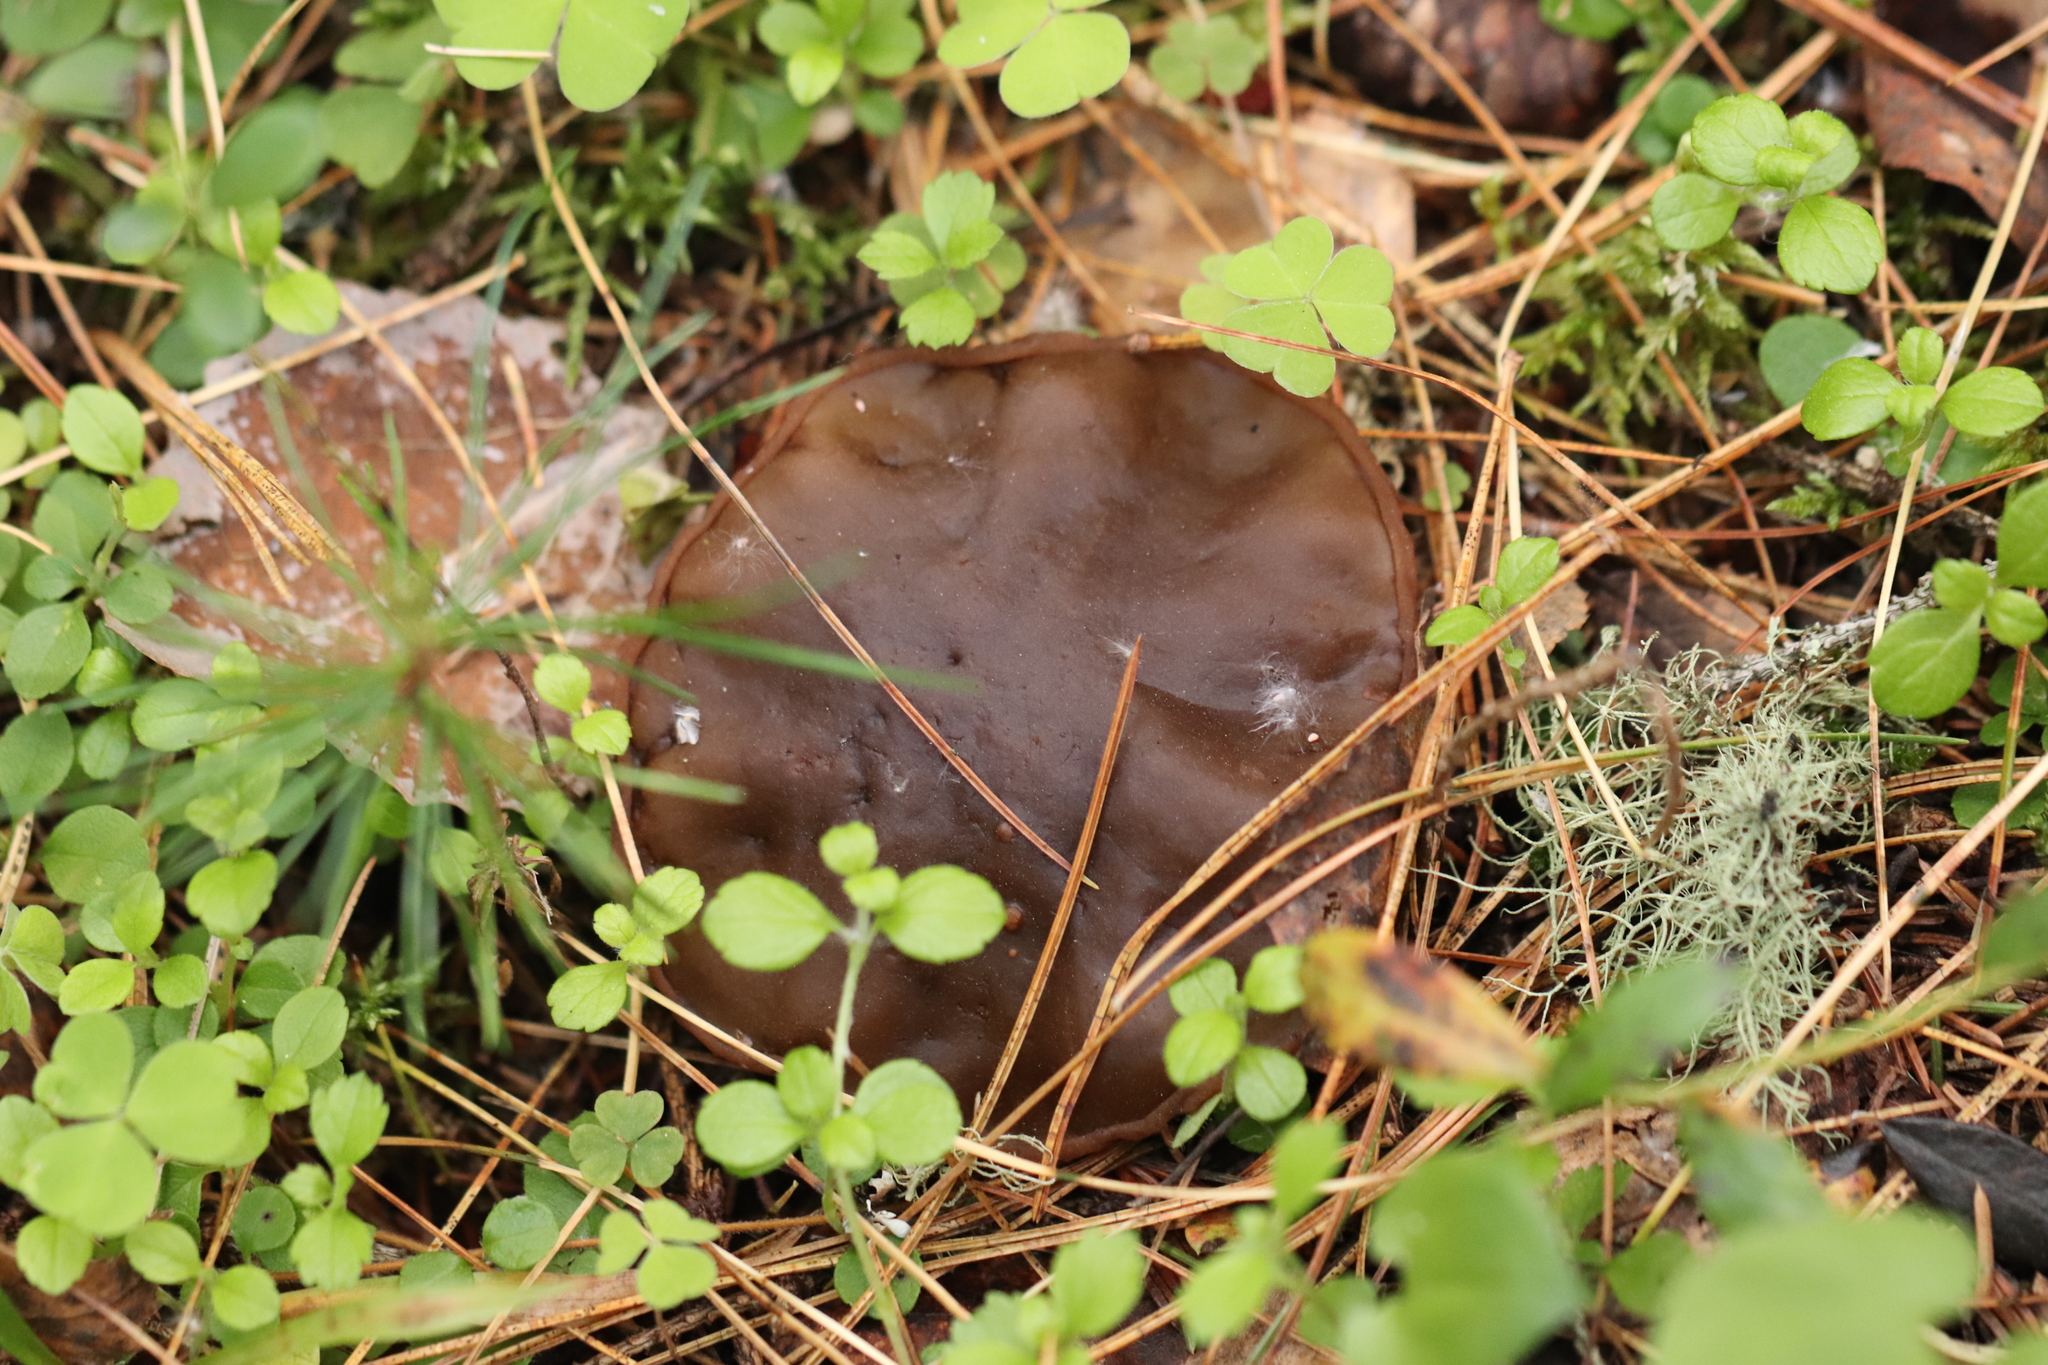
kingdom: Fungi
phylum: Ascomycota
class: Pezizomycetes
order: Pezizales
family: Sarcosomataceae
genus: Sarcosoma
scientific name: Sarcosoma globosum
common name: Charred-pancake cup
